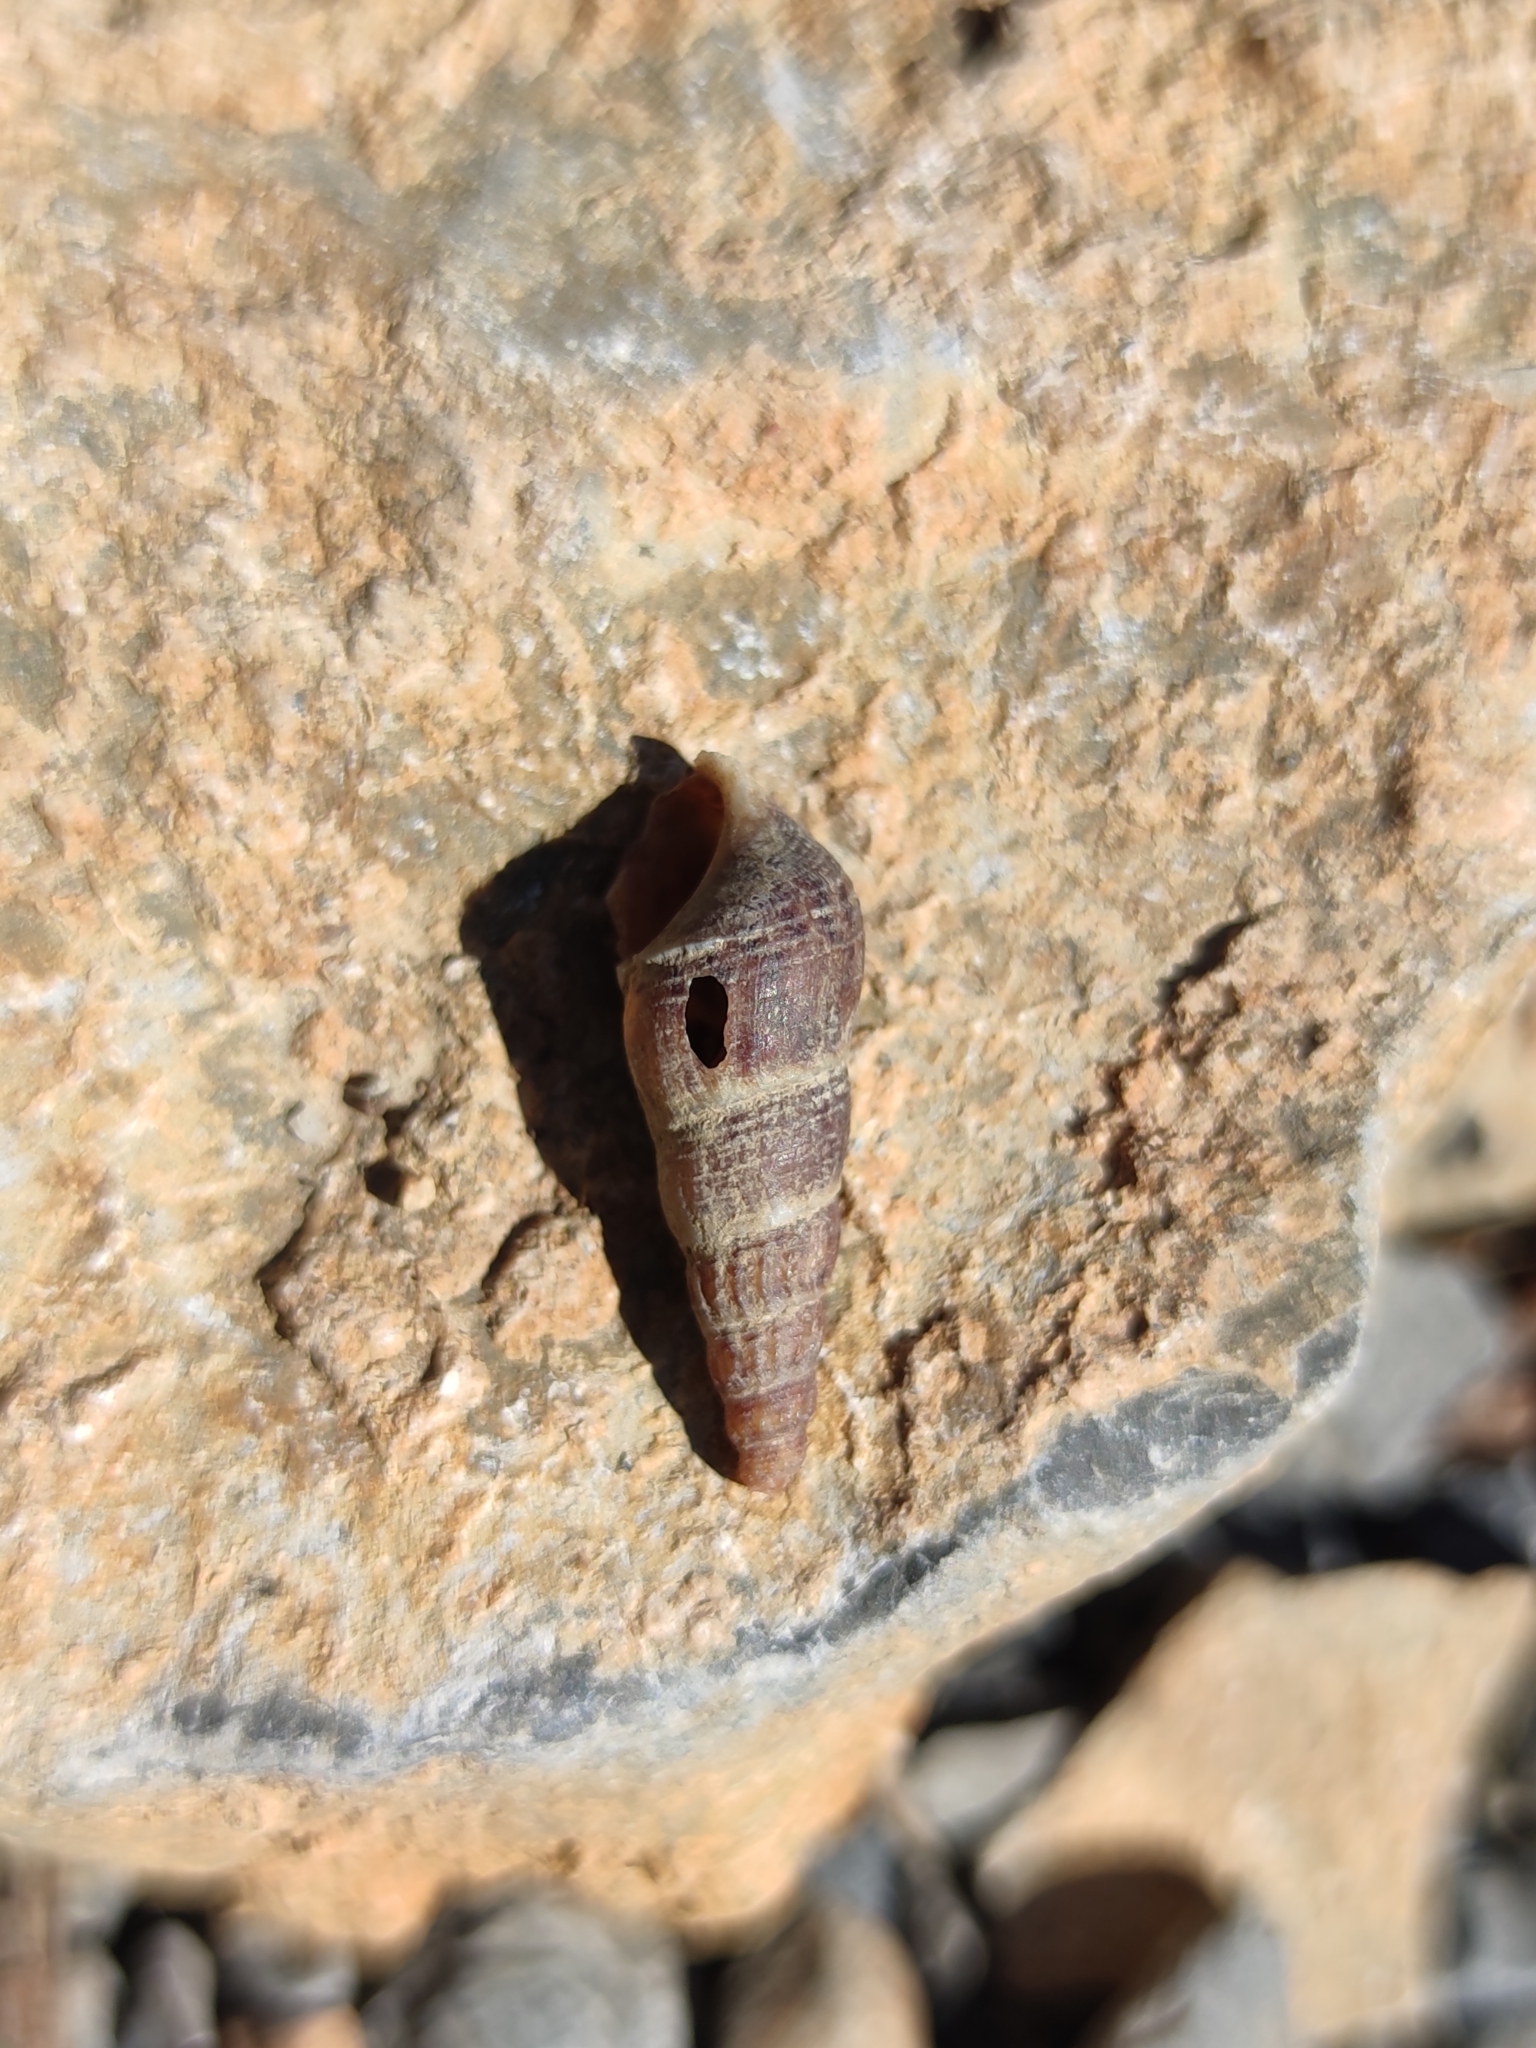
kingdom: Animalia
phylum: Mollusca
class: Gastropoda
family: Thiaridae
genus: Melanoides
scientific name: Melanoides tuberculata
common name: Red-rim melania
